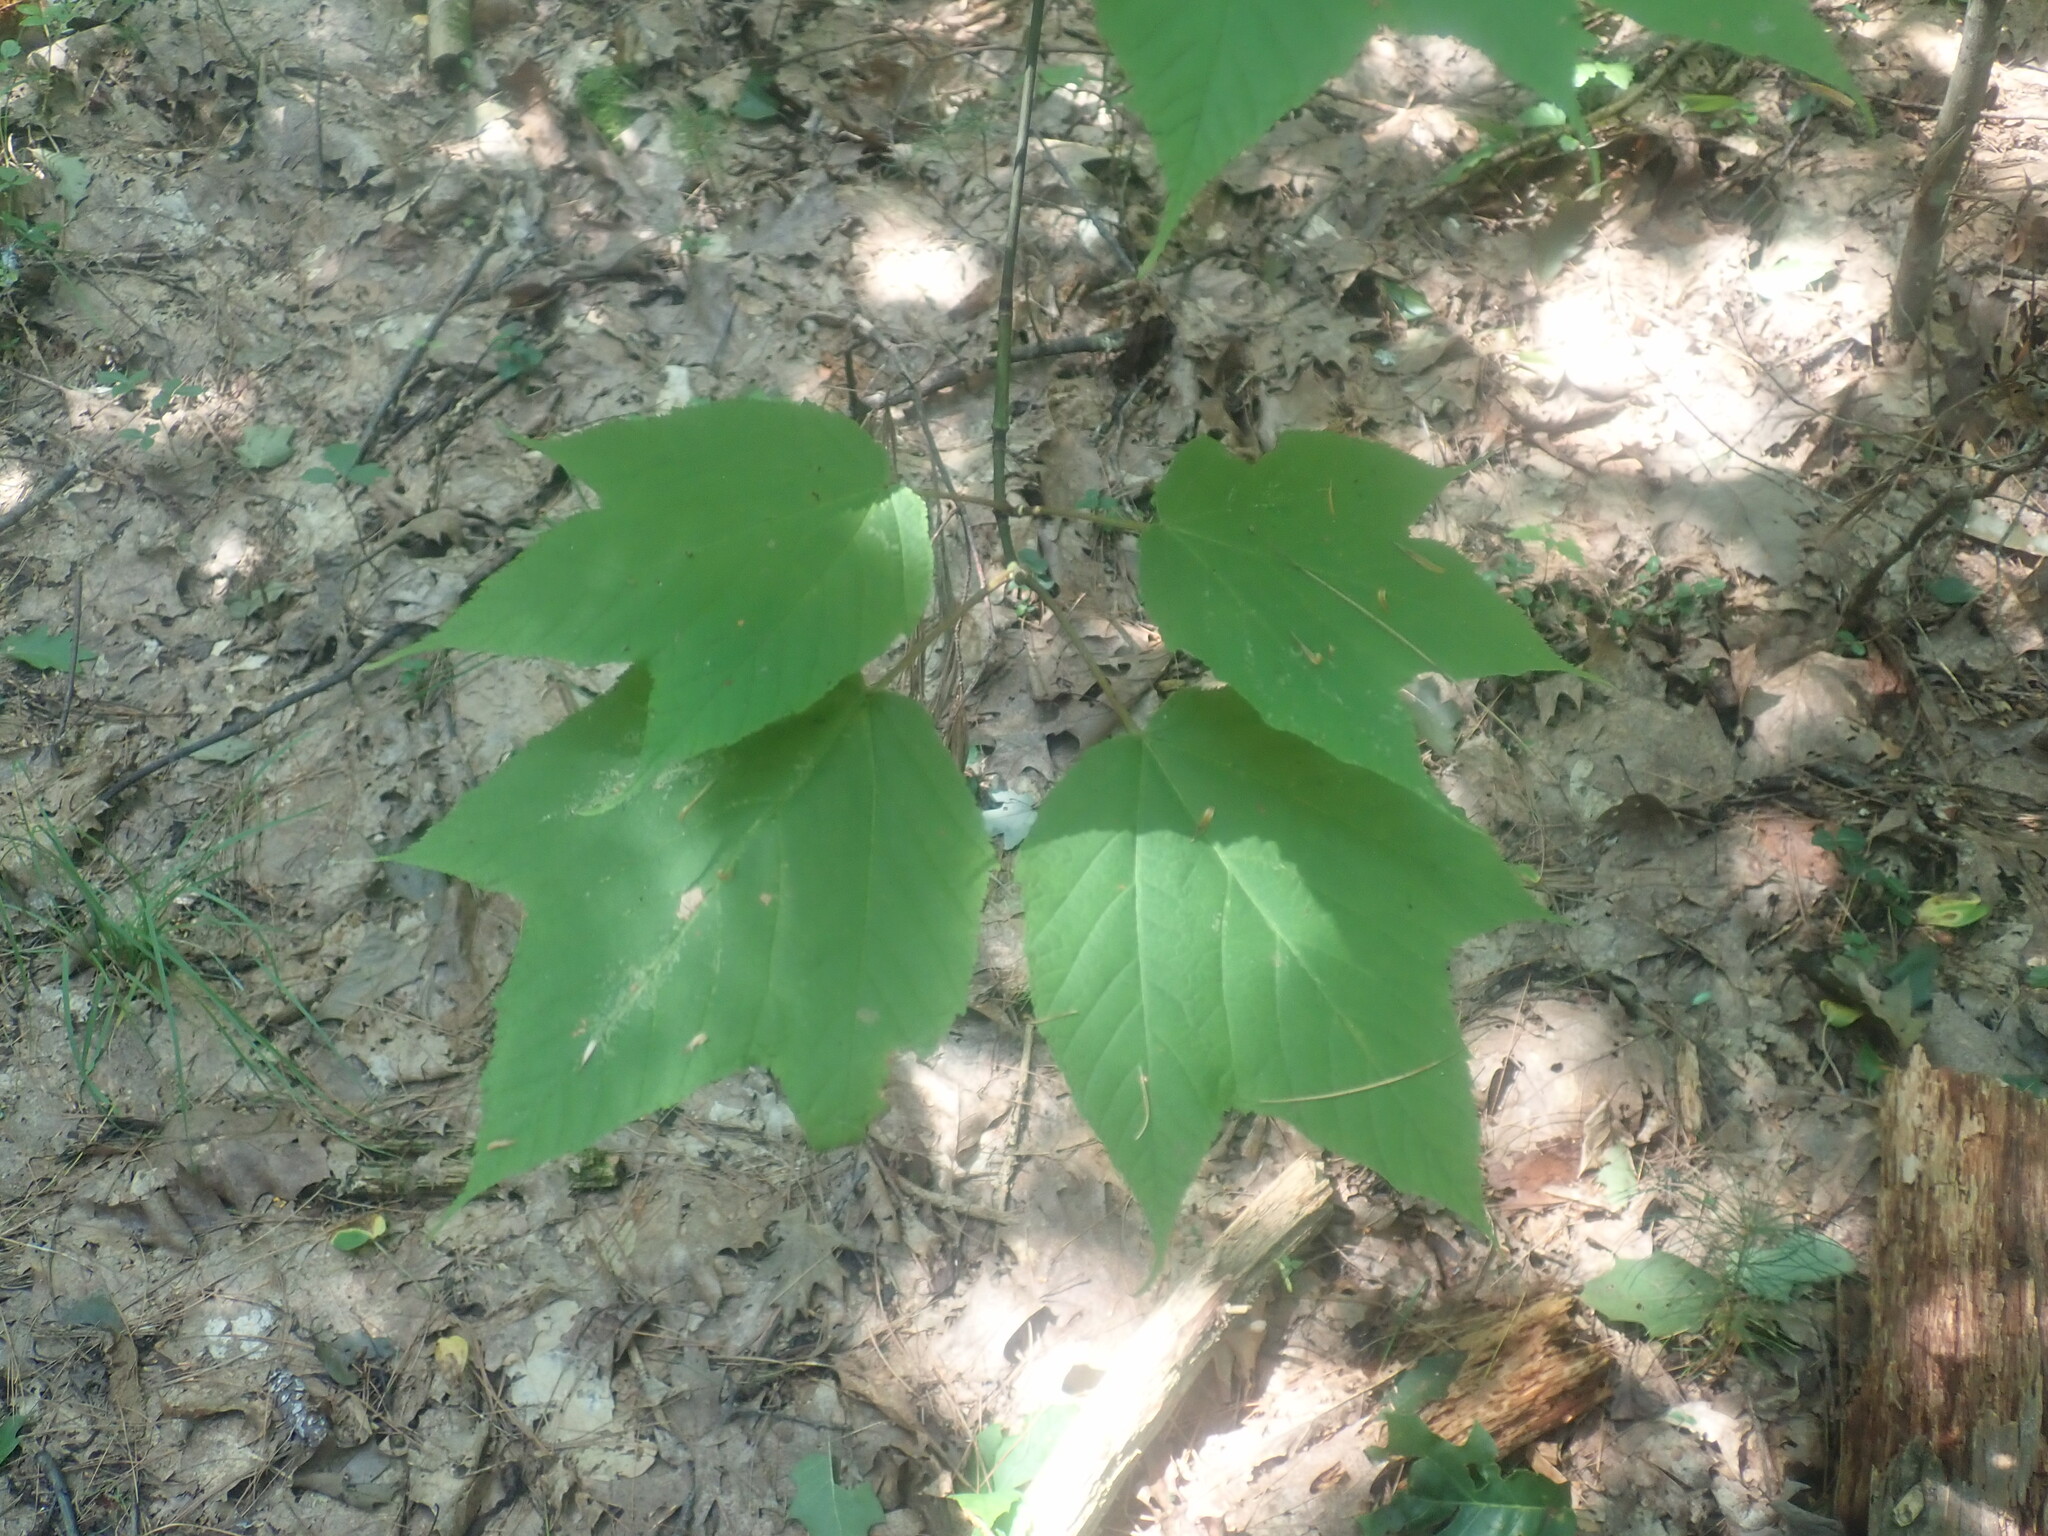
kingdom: Plantae
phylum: Tracheophyta
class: Magnoliopsida
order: Sapindales
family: Sapindaceae
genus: Acer
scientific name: Acer pensylvanicum
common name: Moosewood
